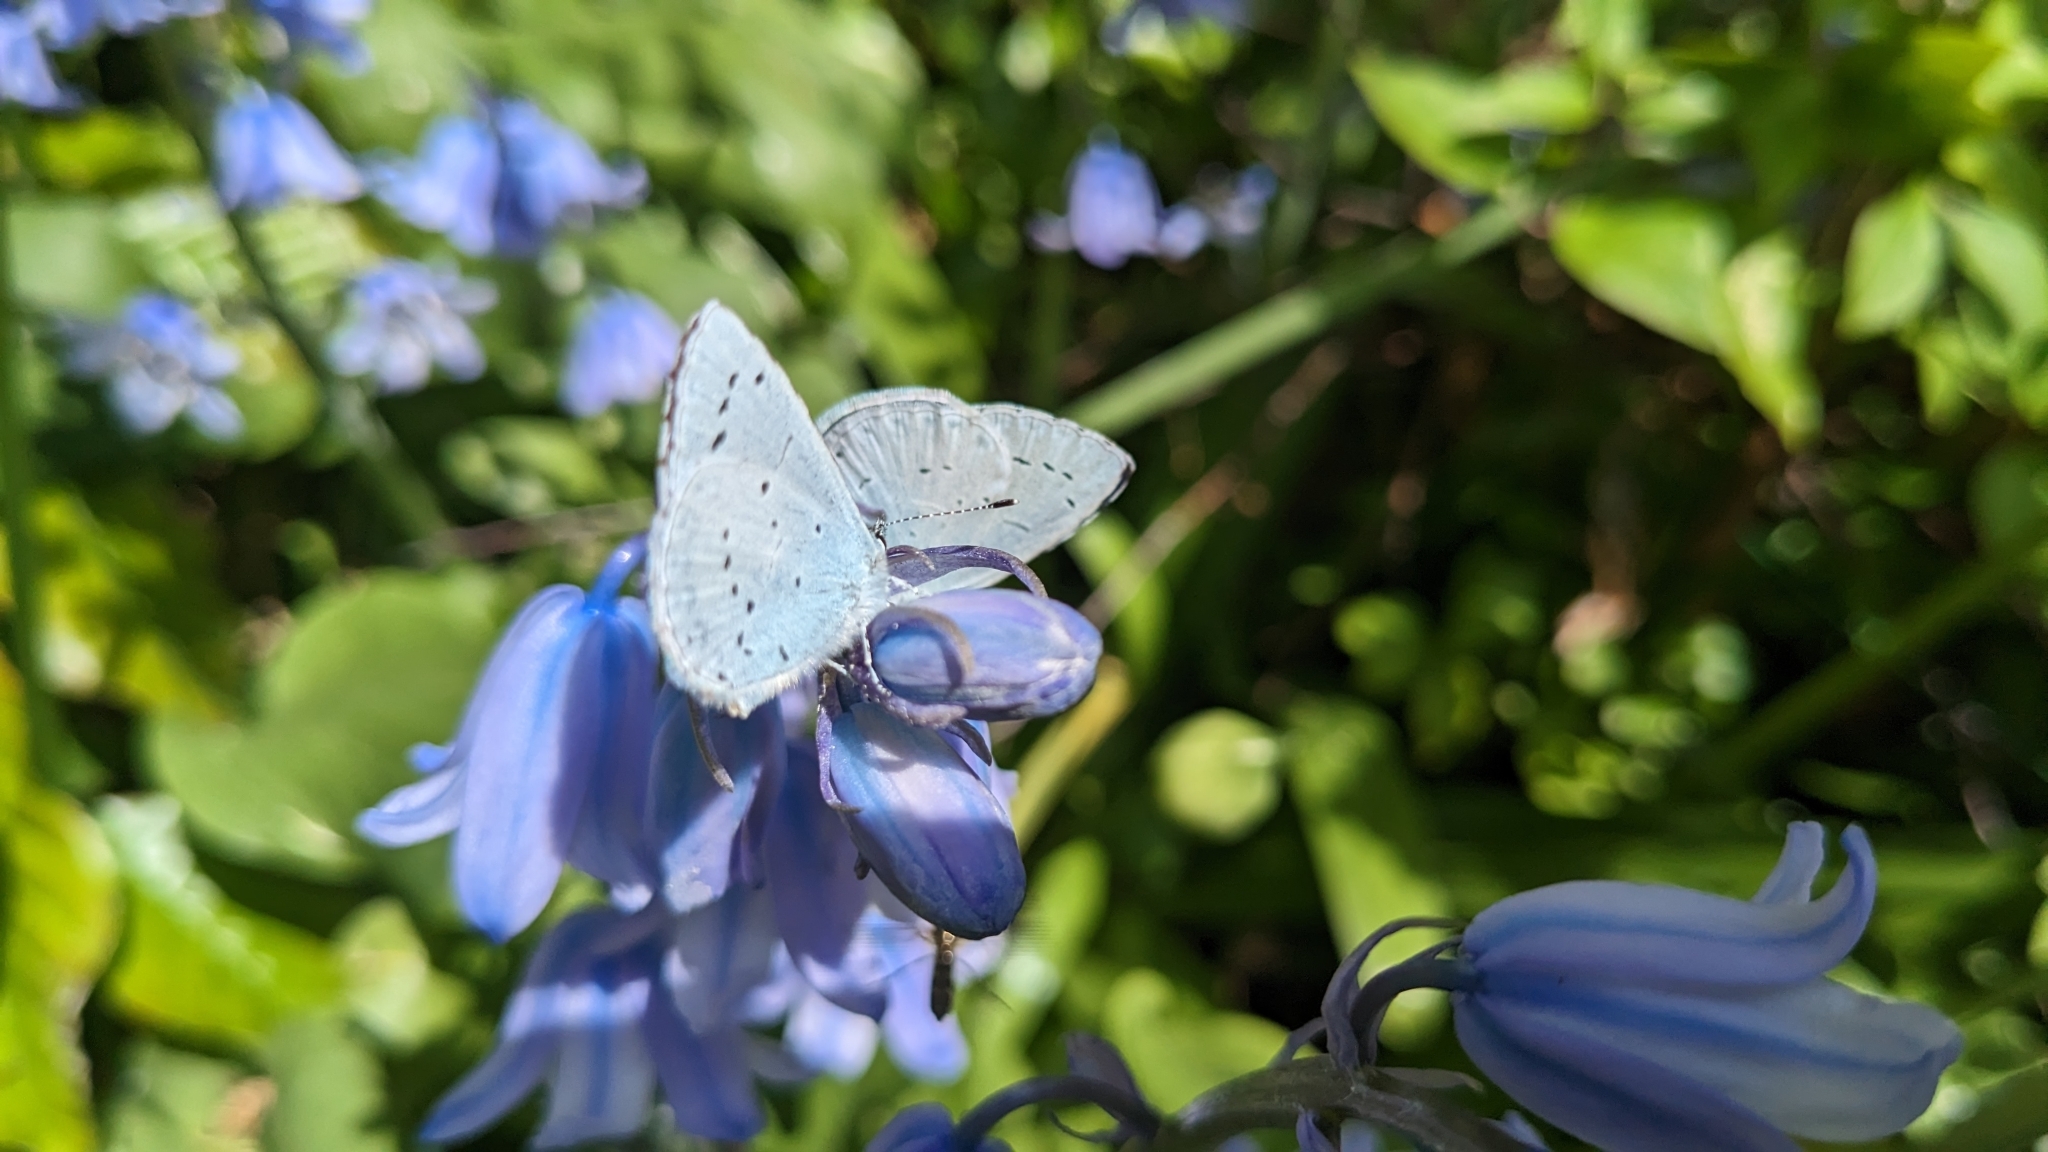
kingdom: Animalia
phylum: Arthropoda
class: Insecta
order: Lepidoptera
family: Lycaenidae
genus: Celastrina
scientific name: Celastrina argiolus
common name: Holly blue
